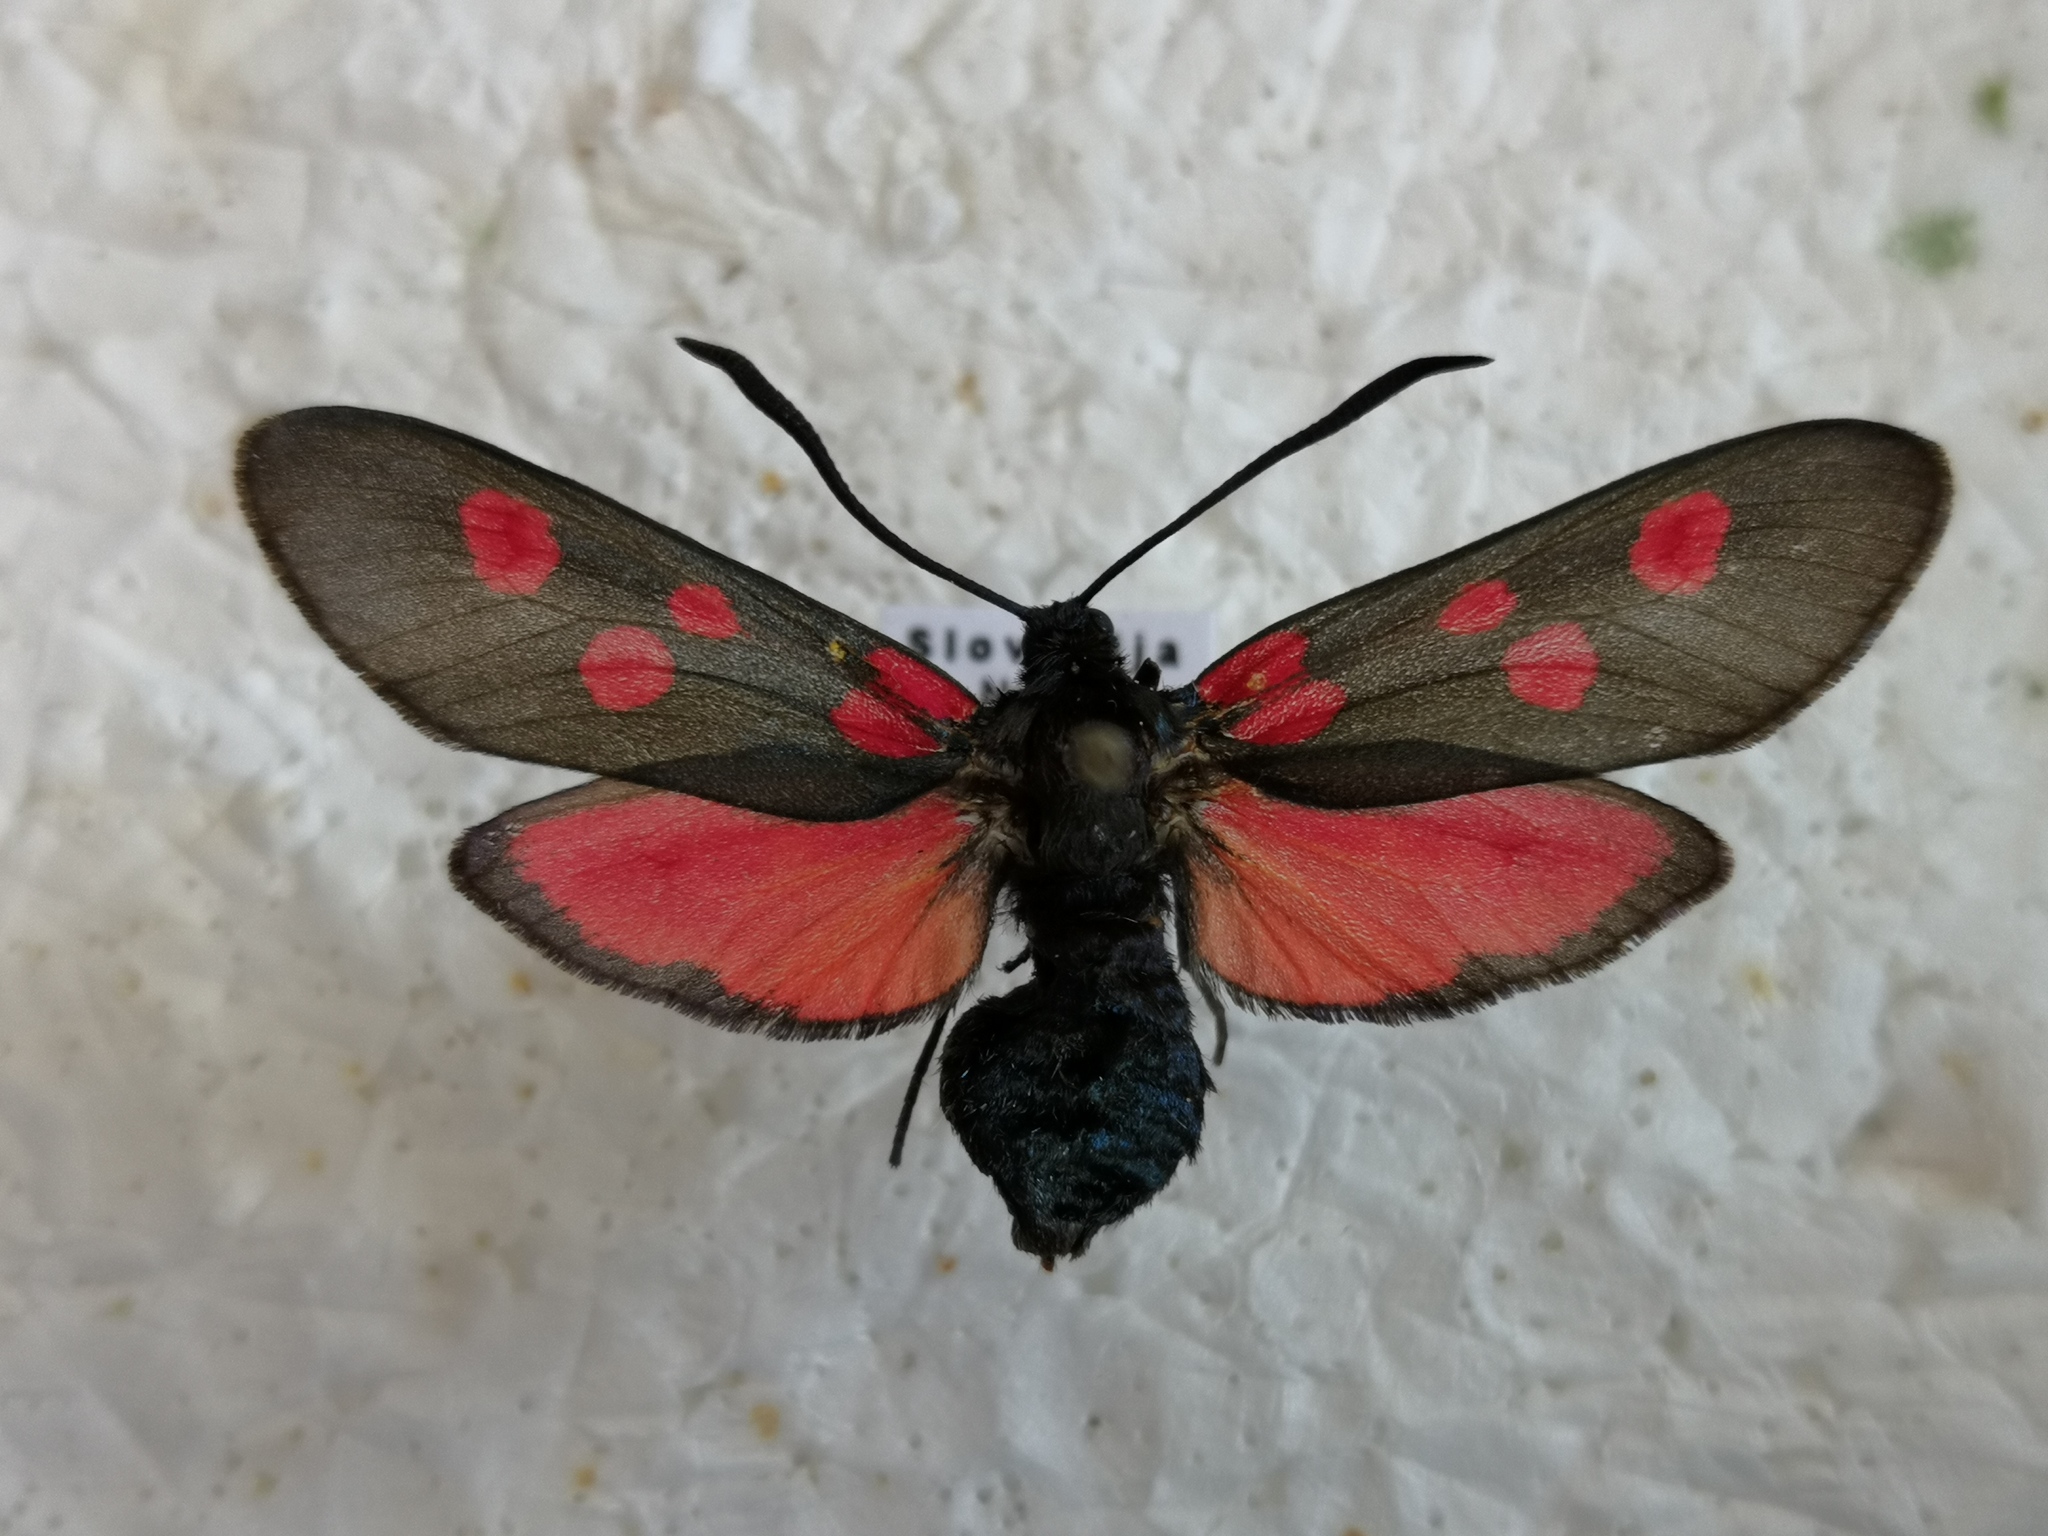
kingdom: Animalia
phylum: Arthropoda
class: Insecta
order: Lepidoptera
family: Zygaenidae
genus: Zygaena
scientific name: Zygaena lonicerae
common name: Narrow-bordered five-spot burnet
